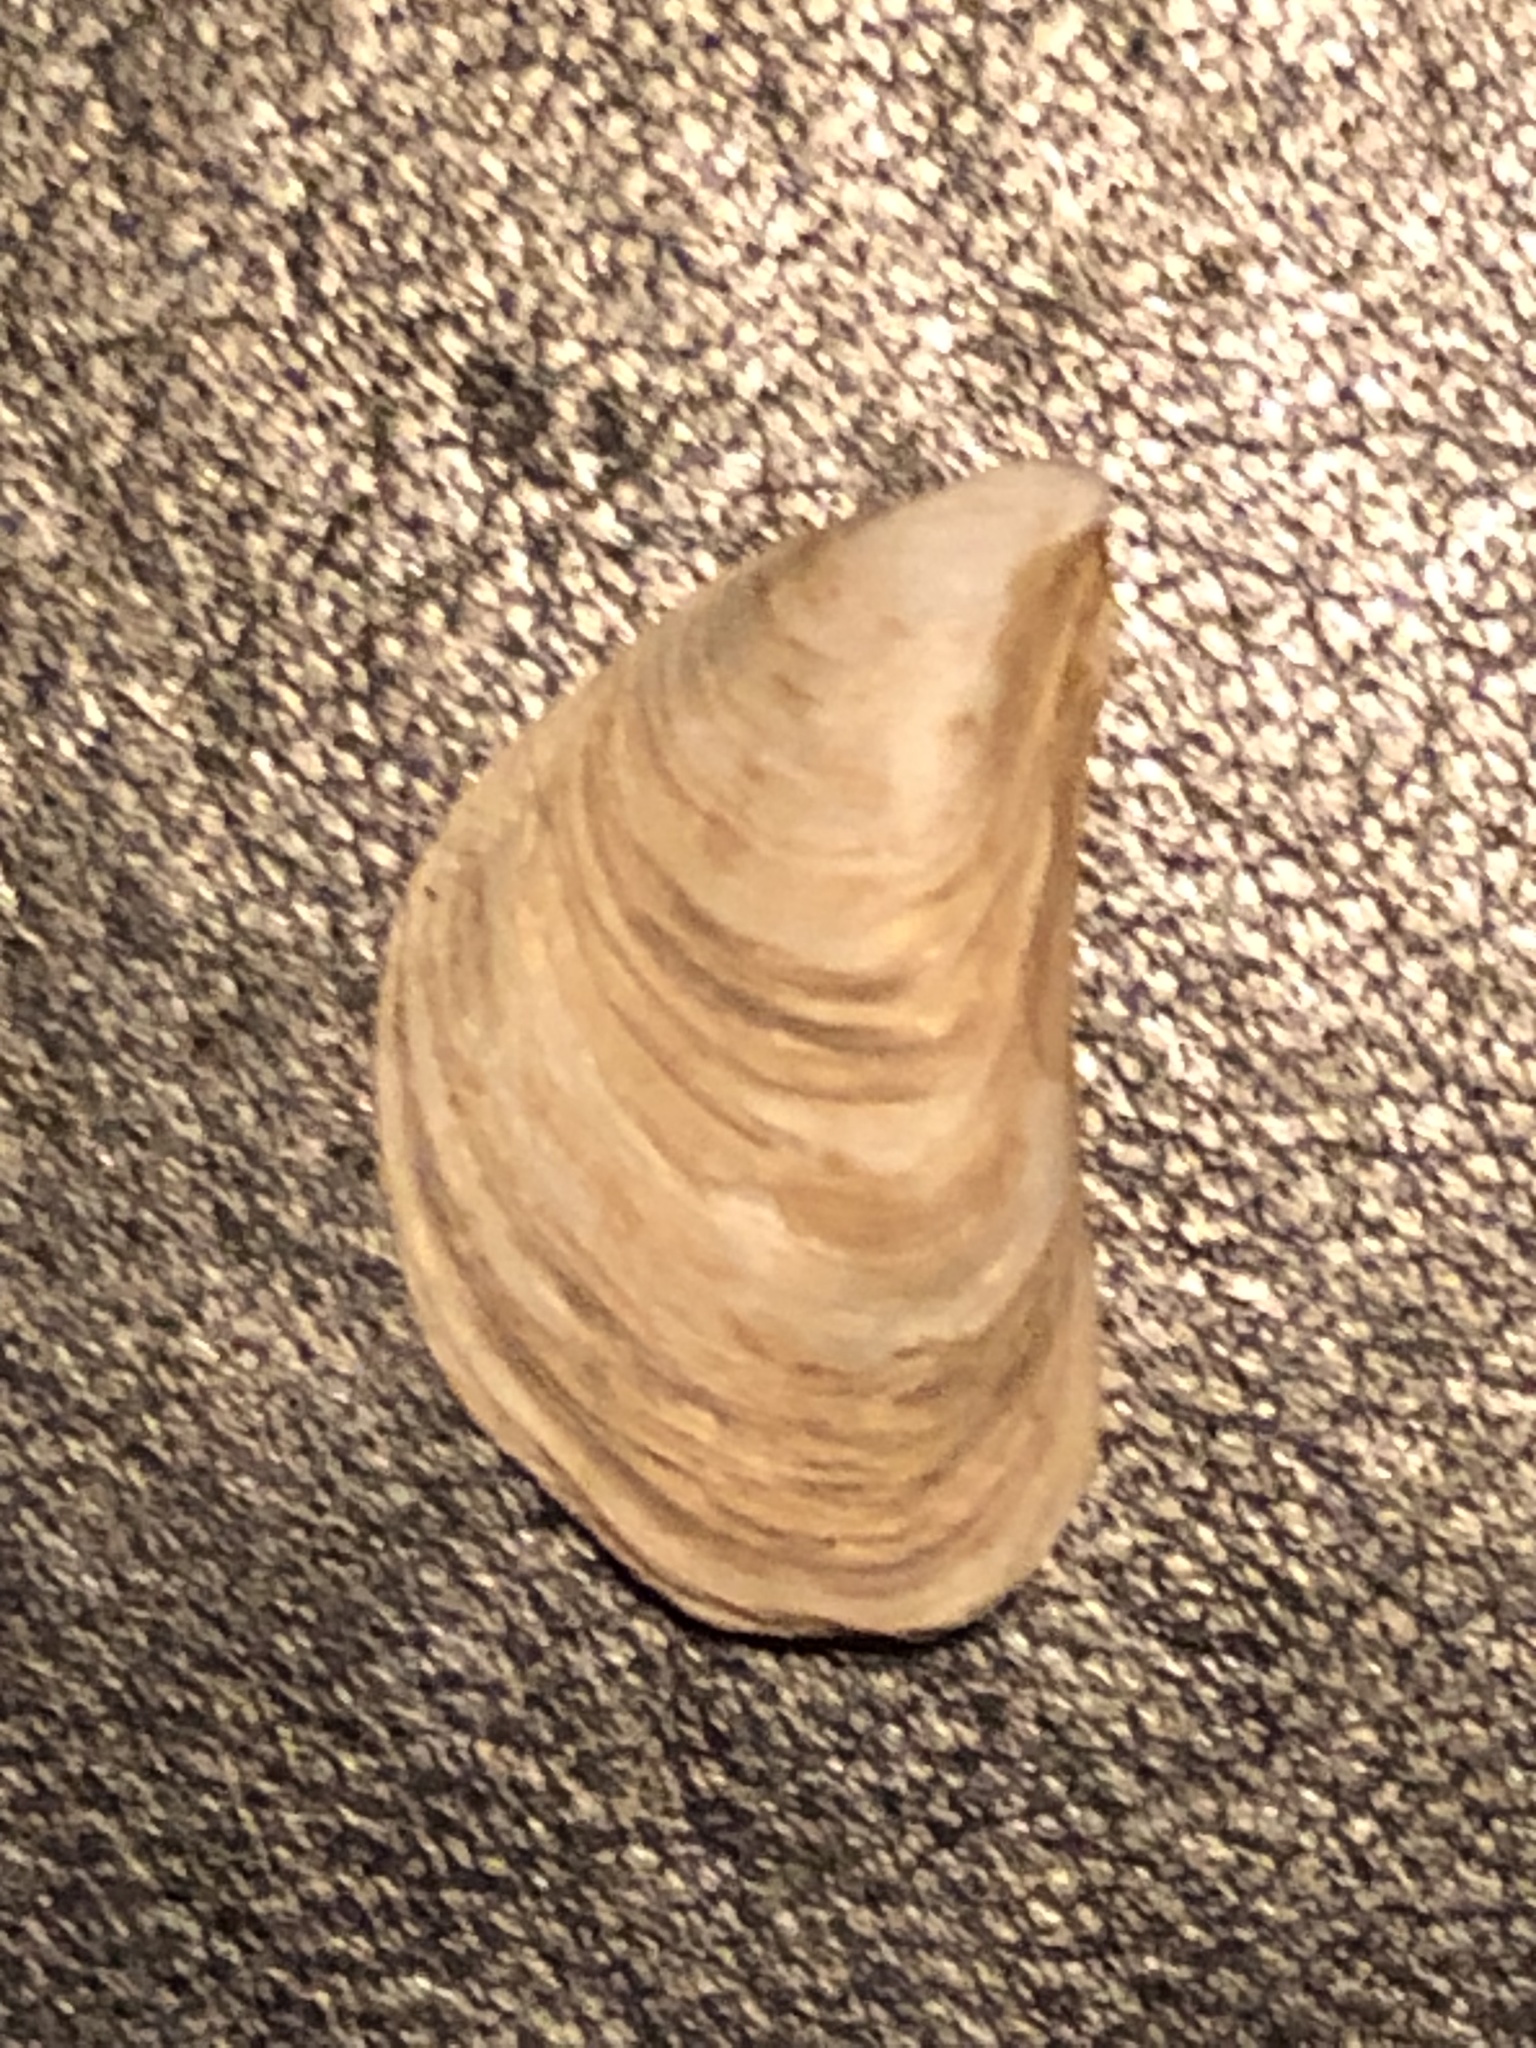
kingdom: Animalia
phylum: Mollusca
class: Bivalvia
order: Myida
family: Dreissenidae
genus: Dreissena
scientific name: Dreissena bugensis
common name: Quagga mussel
